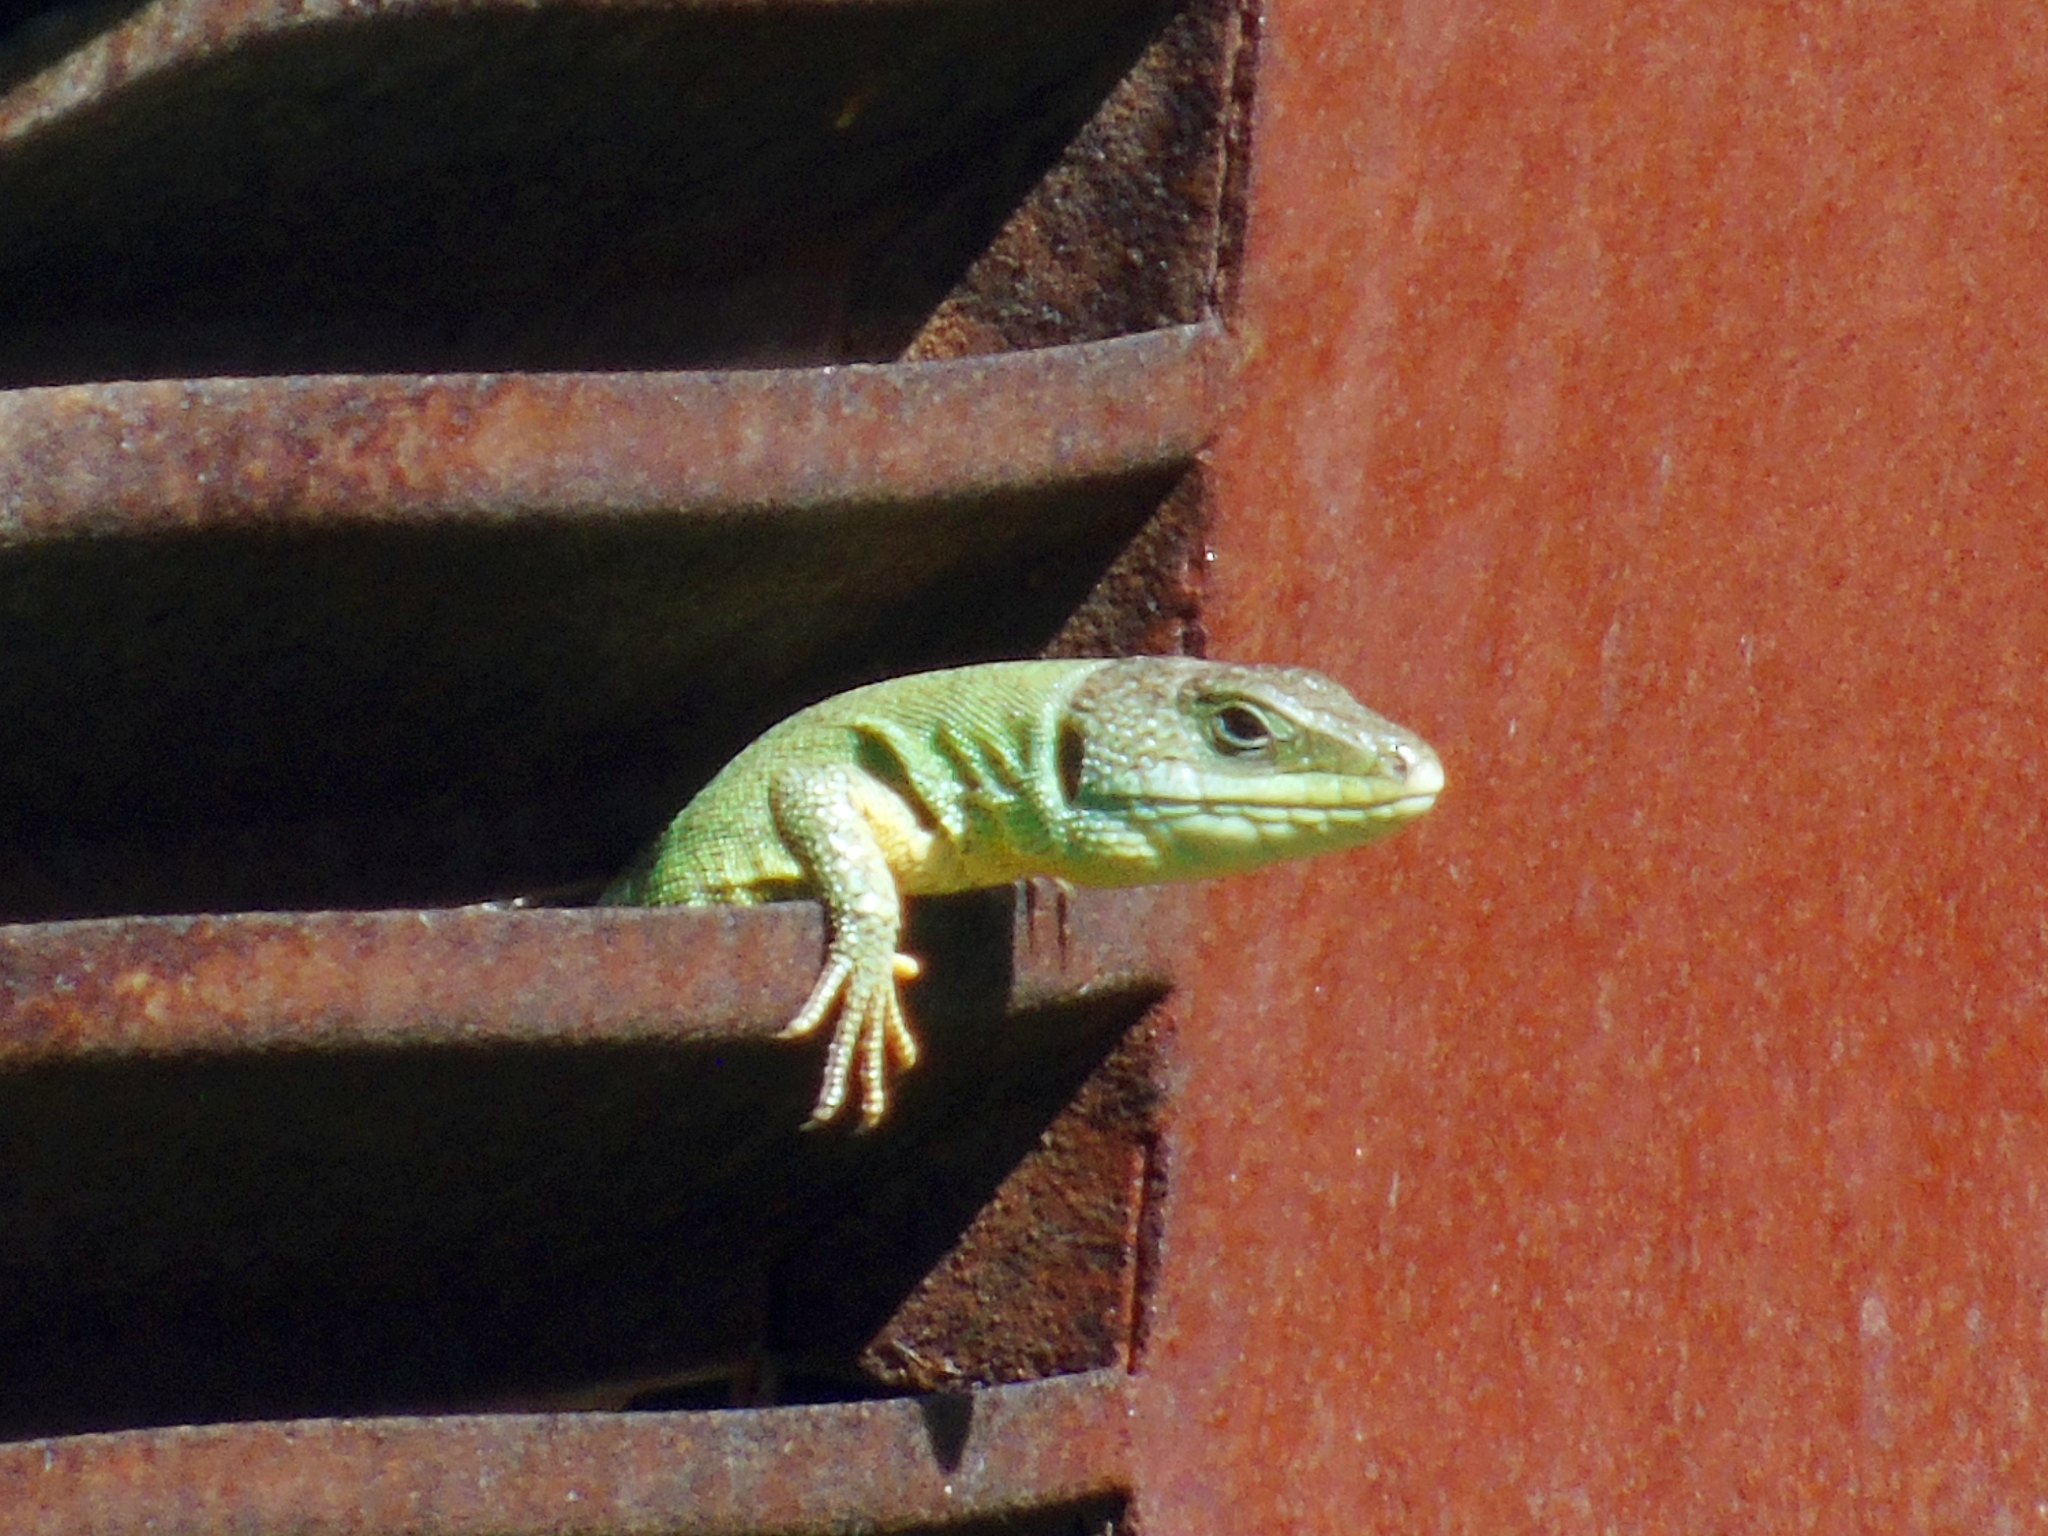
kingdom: Animalia
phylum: Chordata
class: Squamata
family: Lacertidae
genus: Lacerta
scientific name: Lacerta trilineata
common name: Balkan green lizard
